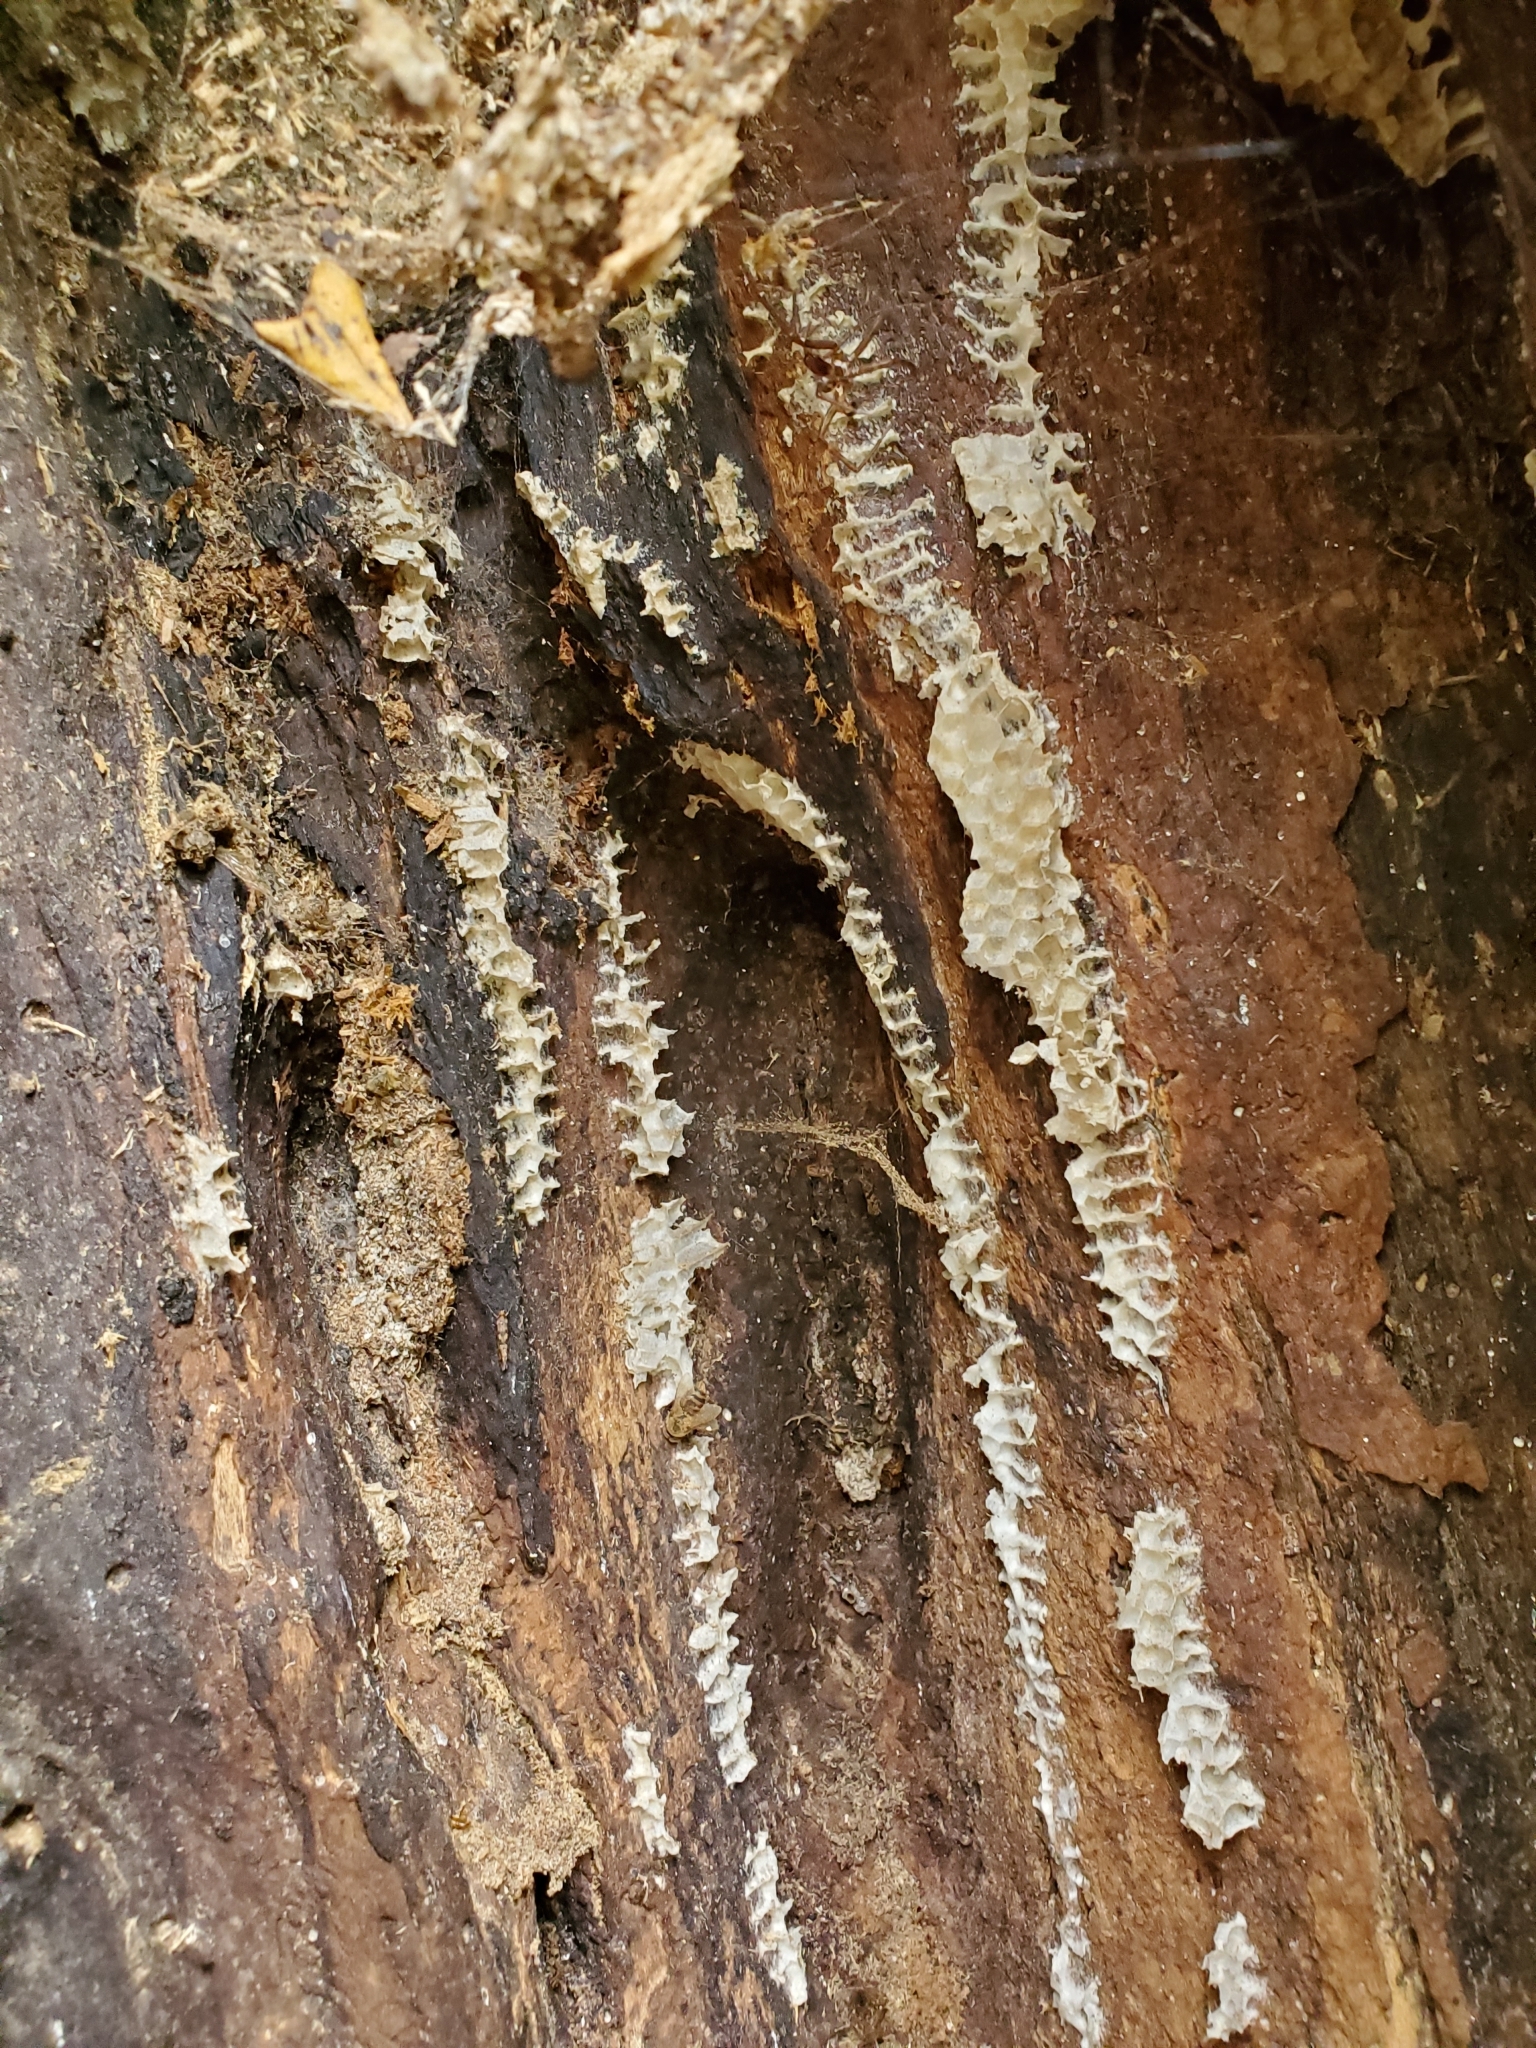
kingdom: Animalia
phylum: Arthropoda
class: Insecta
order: Hymenoptera
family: Apidae
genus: Apis
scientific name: Apis mellifera
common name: Honey bee
